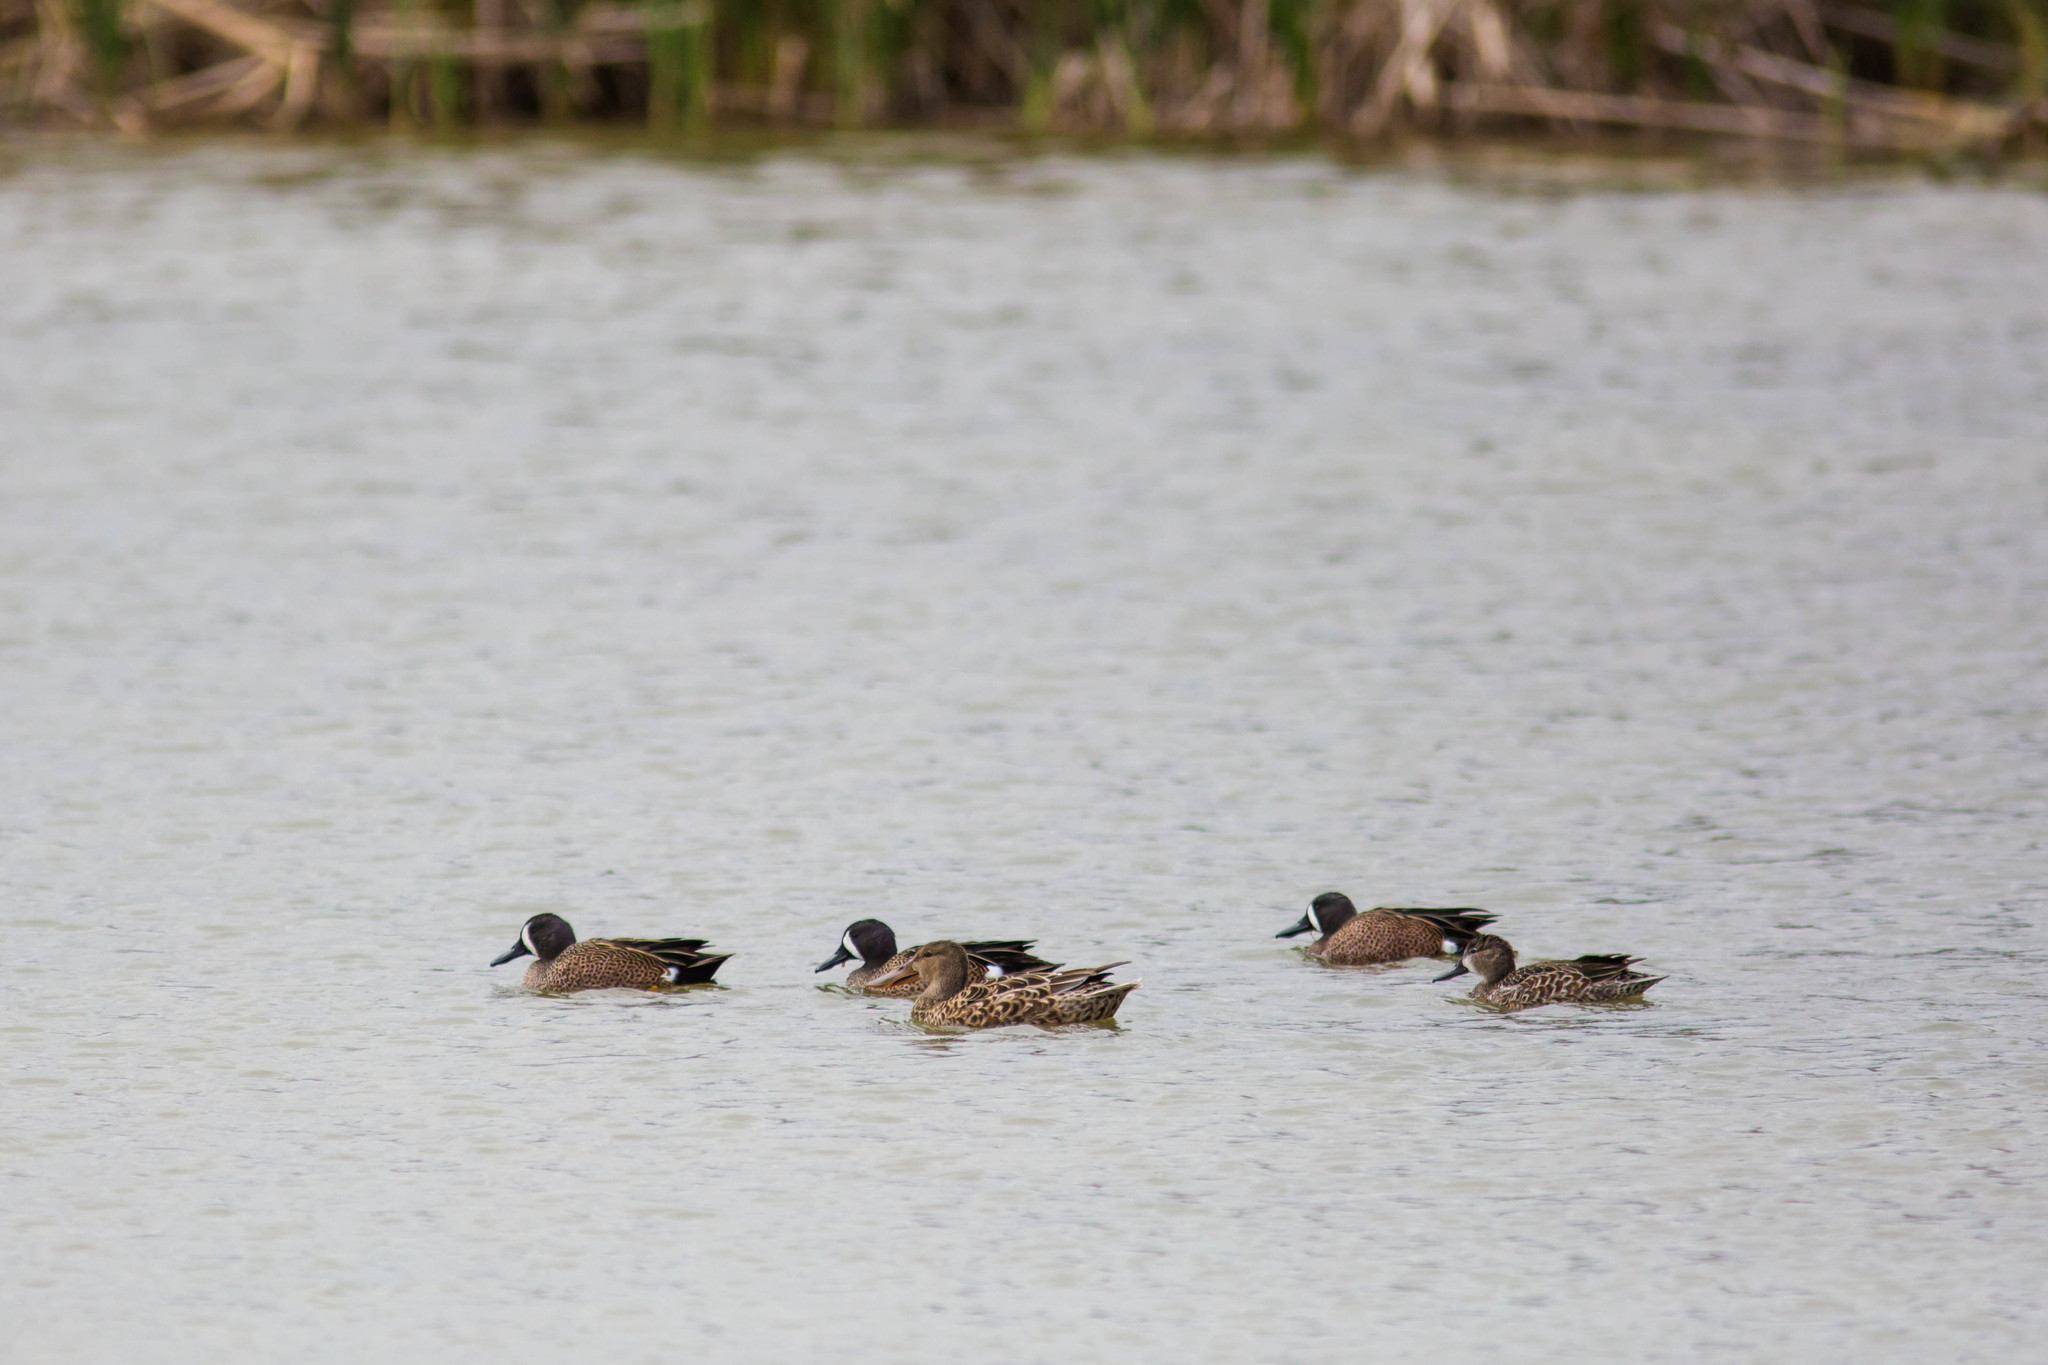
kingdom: Animalia
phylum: Chordata
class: Aves
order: Anseriformes
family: Anatidae
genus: Spatula
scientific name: Spatula discors
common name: Blue-winged teal
